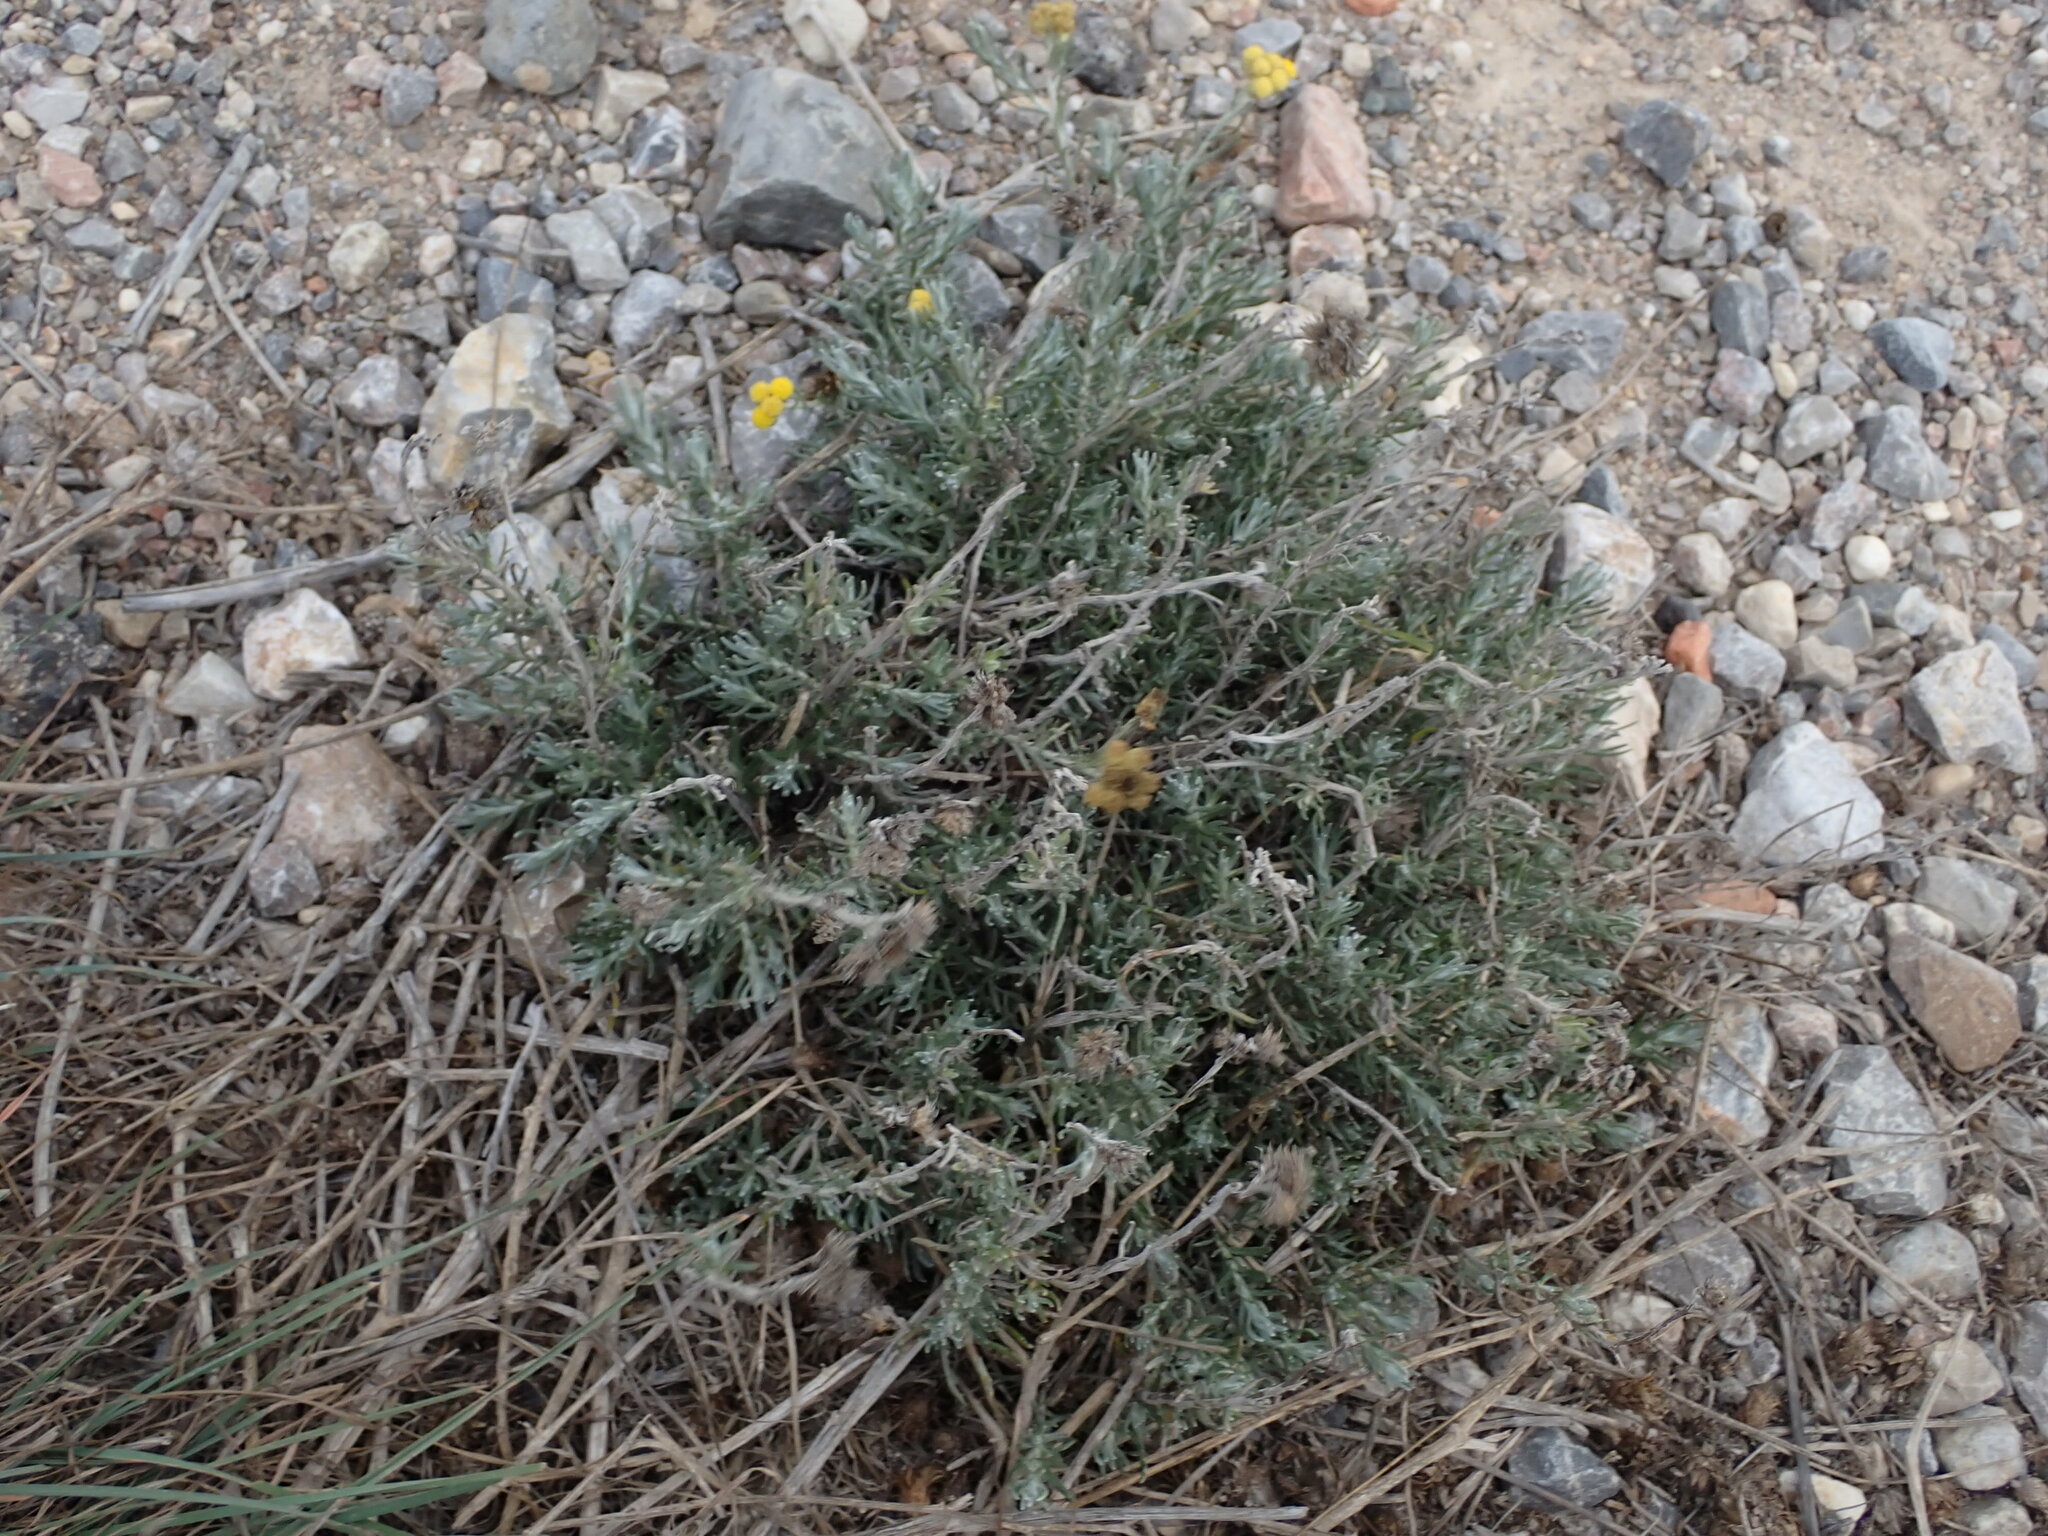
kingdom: Plantae
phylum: Tracheophyta
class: Magnoliopsida
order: Asterales
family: Asteraceae
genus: Helichrysum
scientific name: Helichrysum stoechas
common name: Goldilocks
